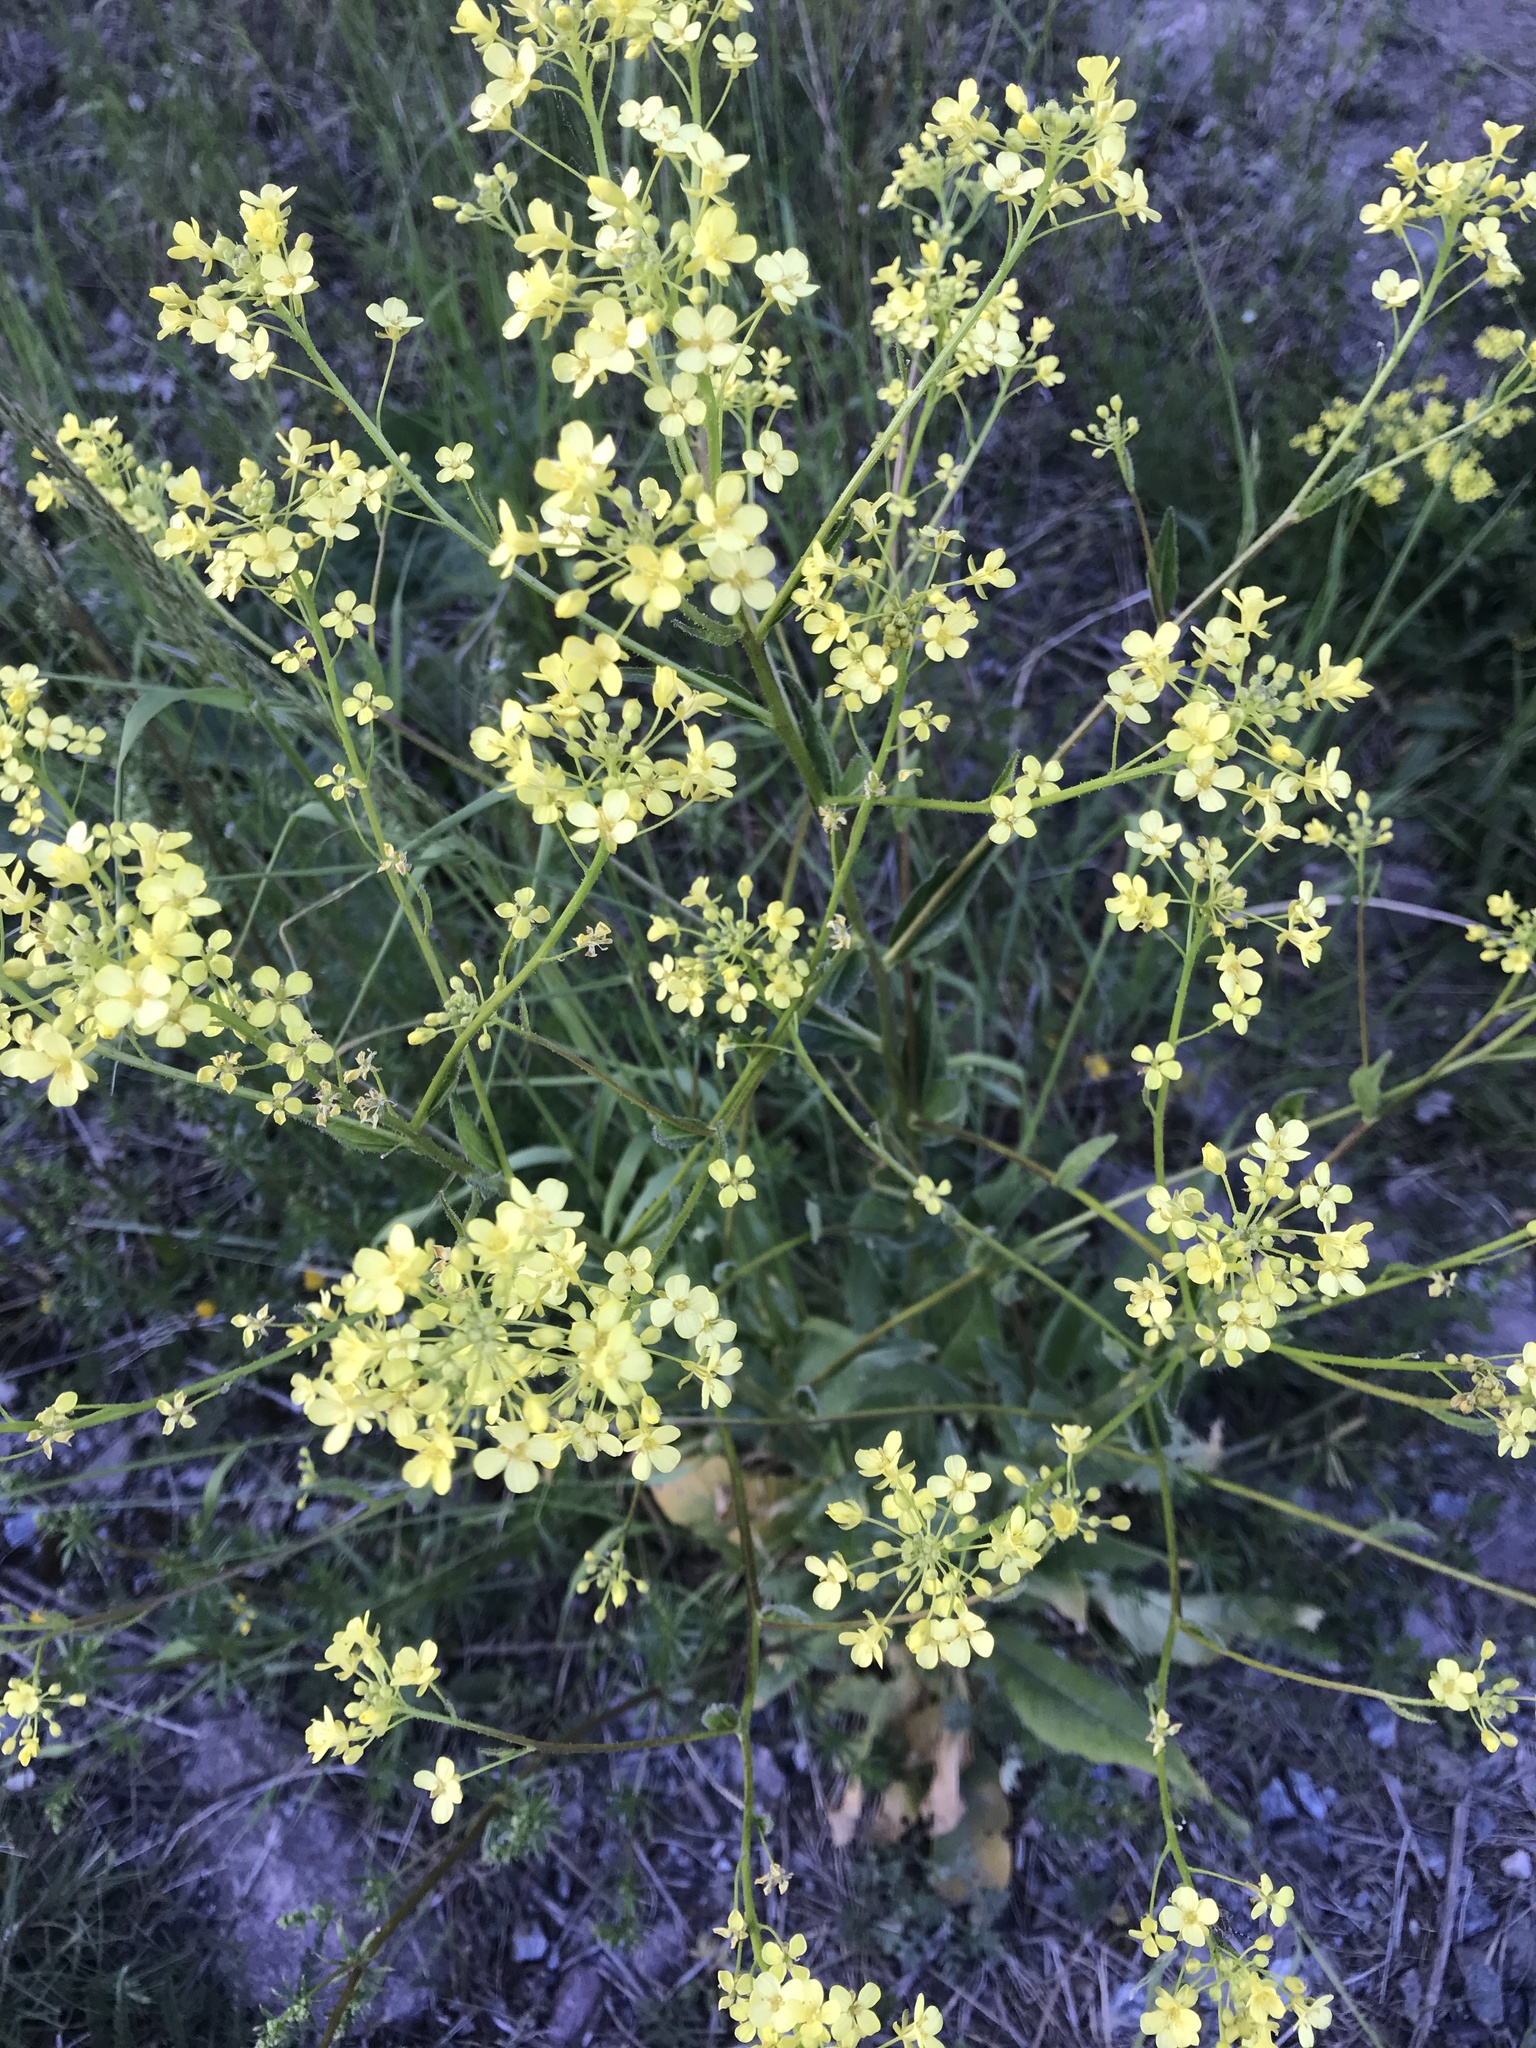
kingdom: Plantae
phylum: Tracheophyta
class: Magnoliopsida
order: Brassicales
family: Brassicaceae
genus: Bunias
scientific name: Bunias orientalis
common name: Warty-cabbage
